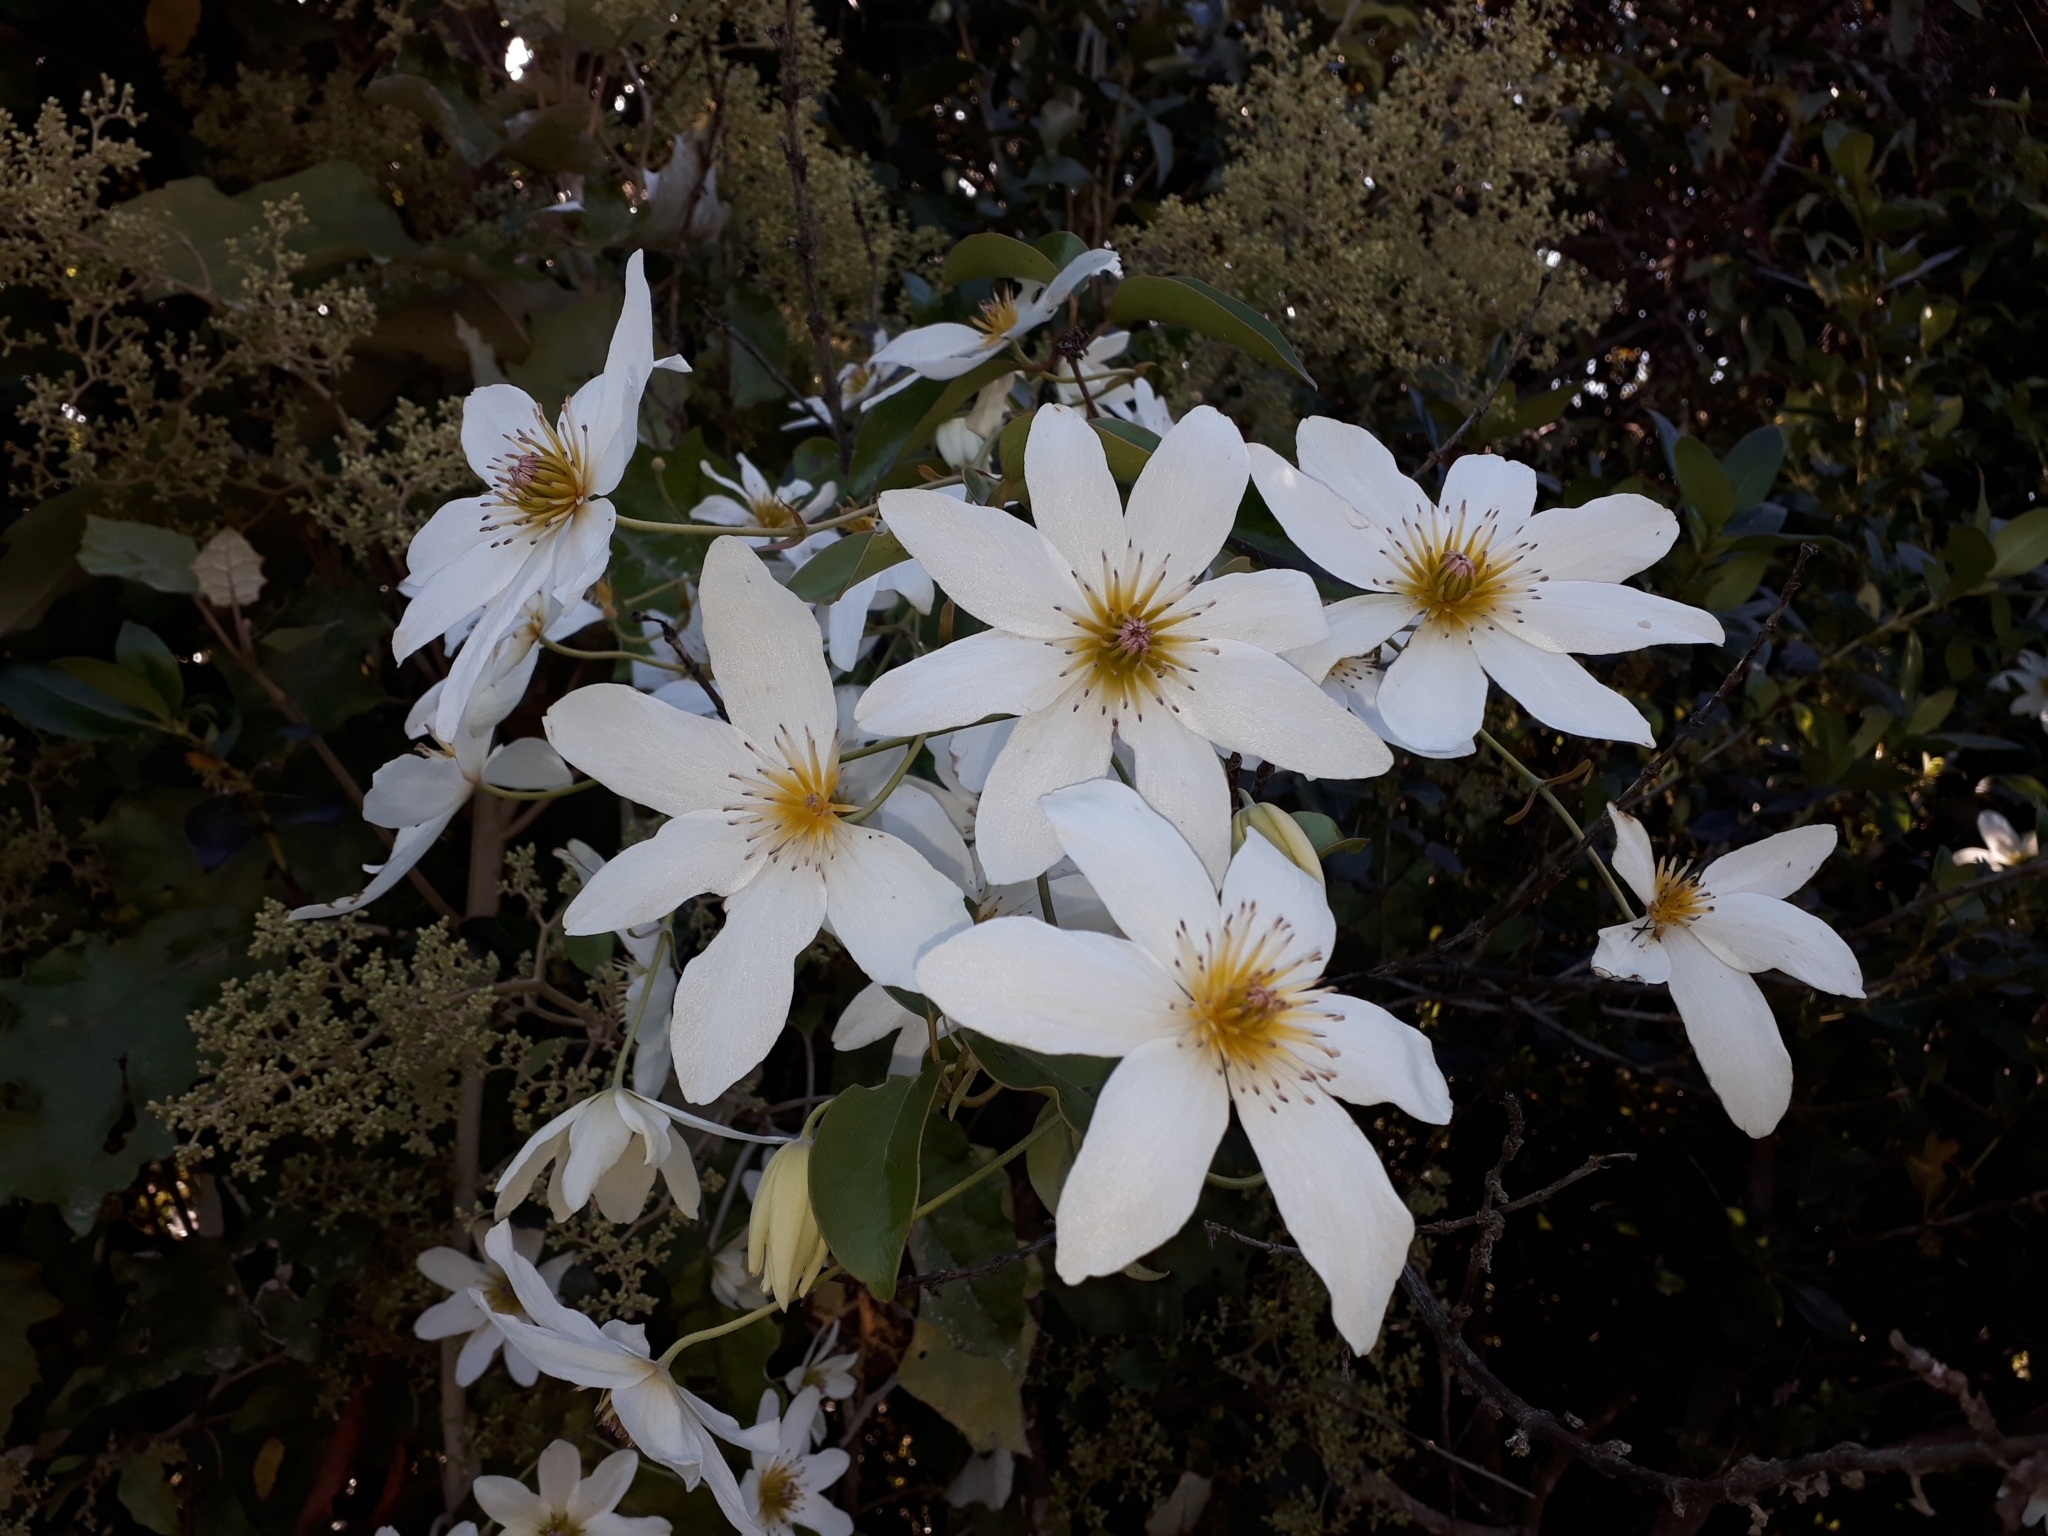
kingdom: Plantae
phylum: Tracheophyta
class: Magnoliopsida
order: Ranunculales
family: Ranunculaceae
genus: Clematis
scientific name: Clematis paniculata
